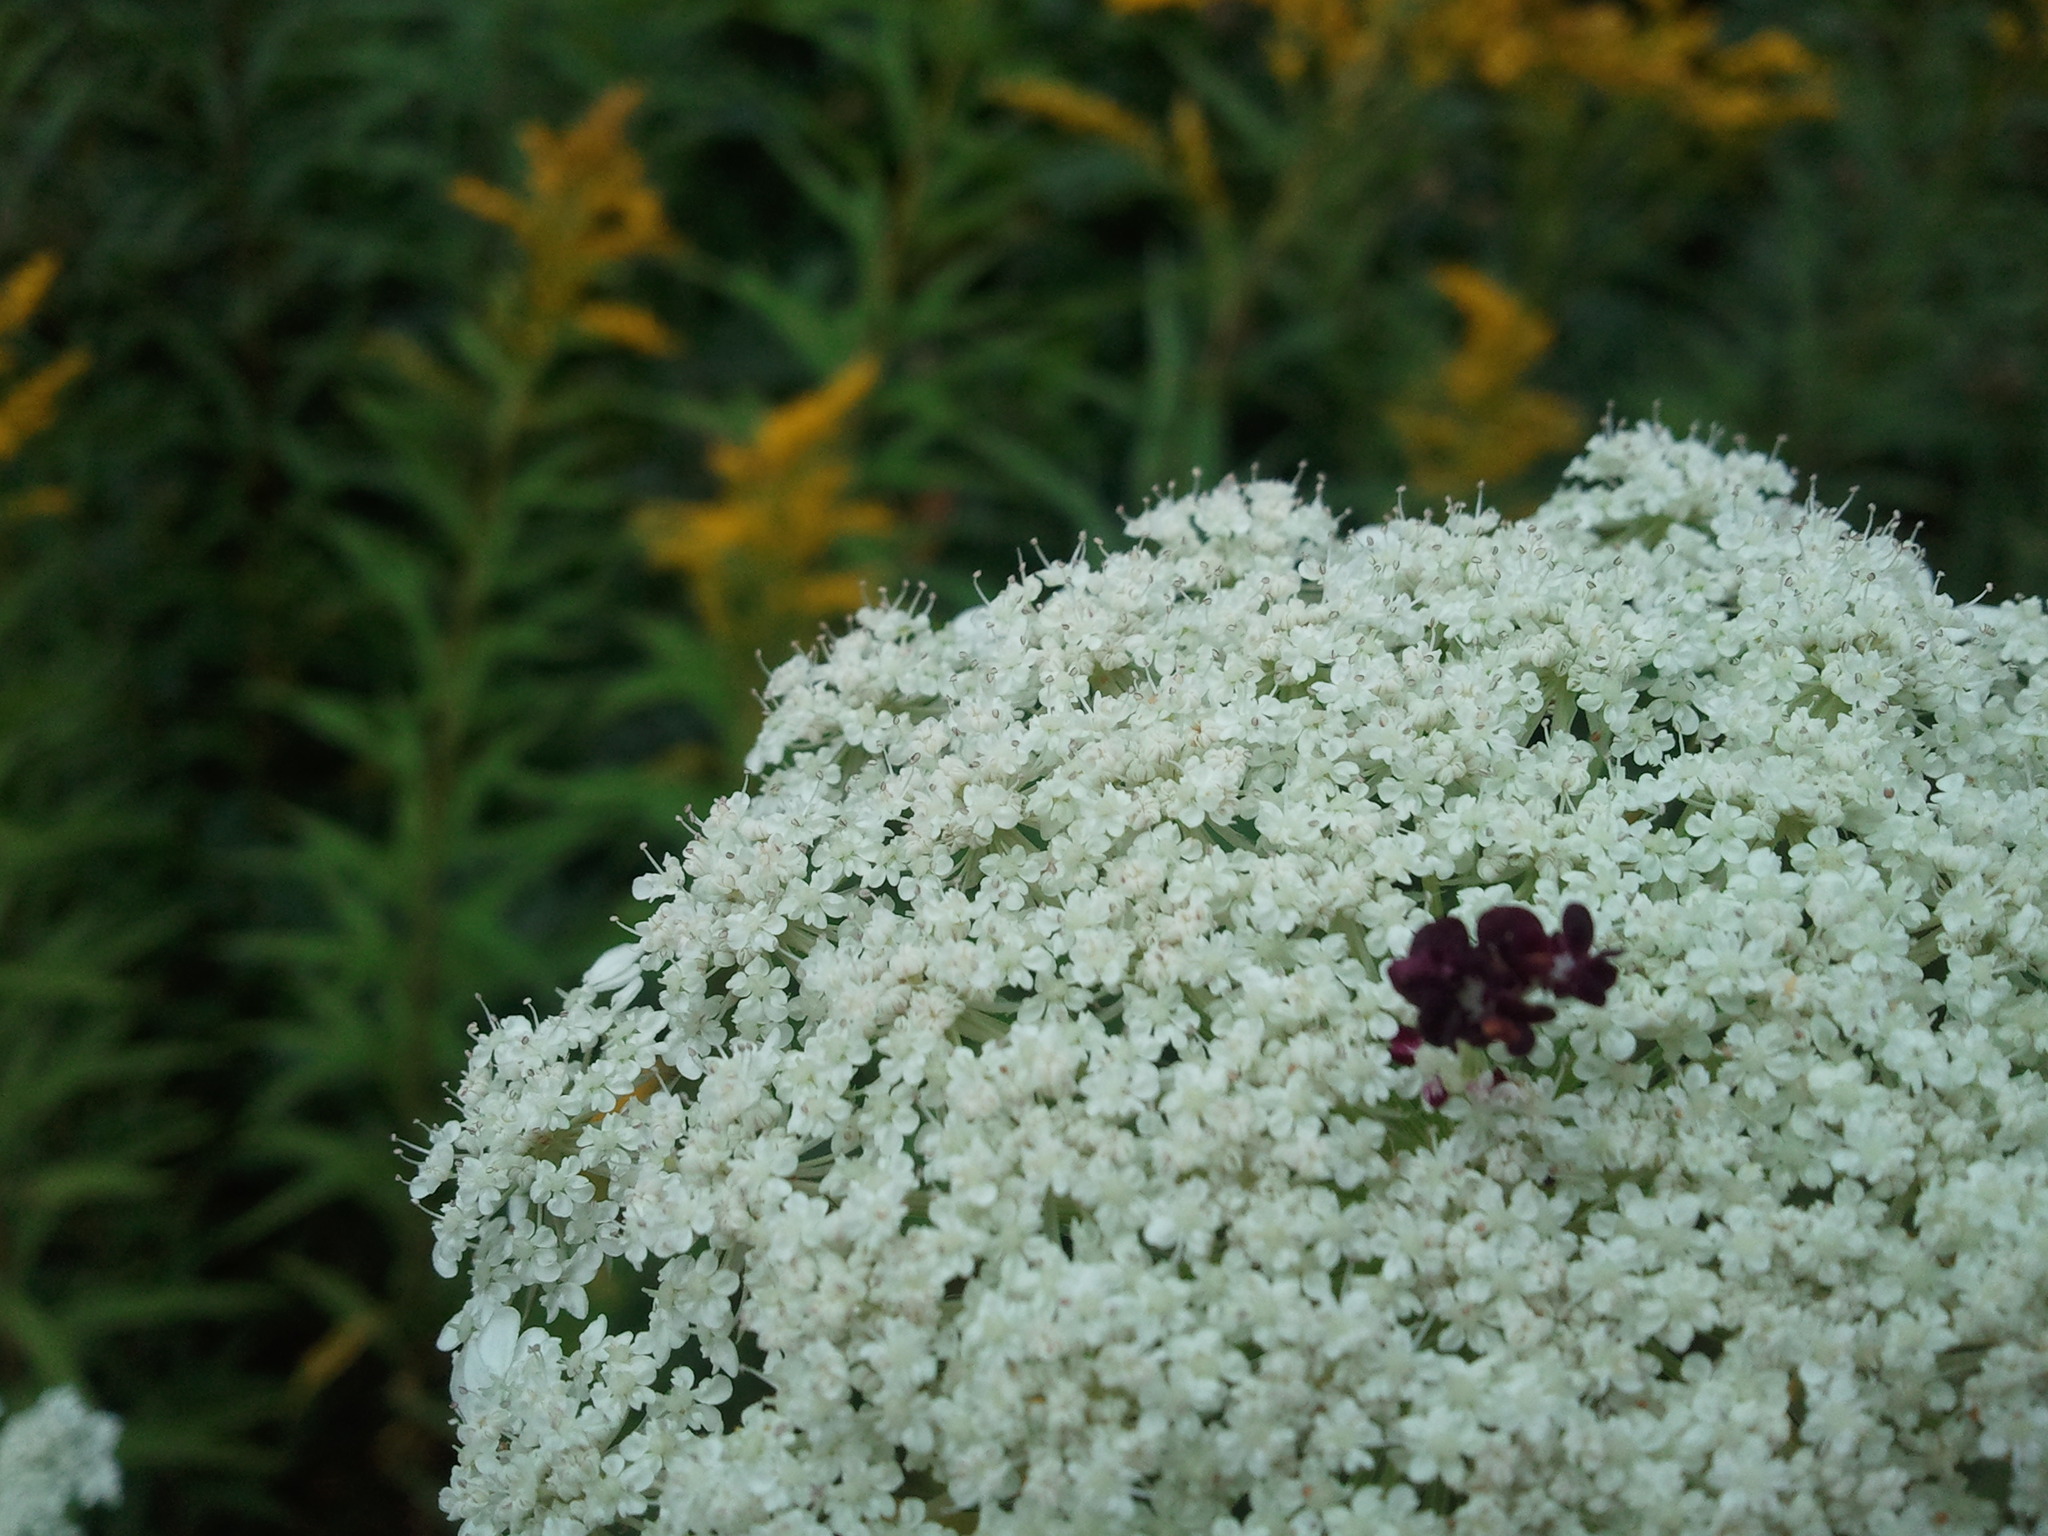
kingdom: Plantae
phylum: Tracheophyta
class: Magnoliopsida
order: Apiales
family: Apiaceae
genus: Daucus
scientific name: Daucus carota
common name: Wild carrot
